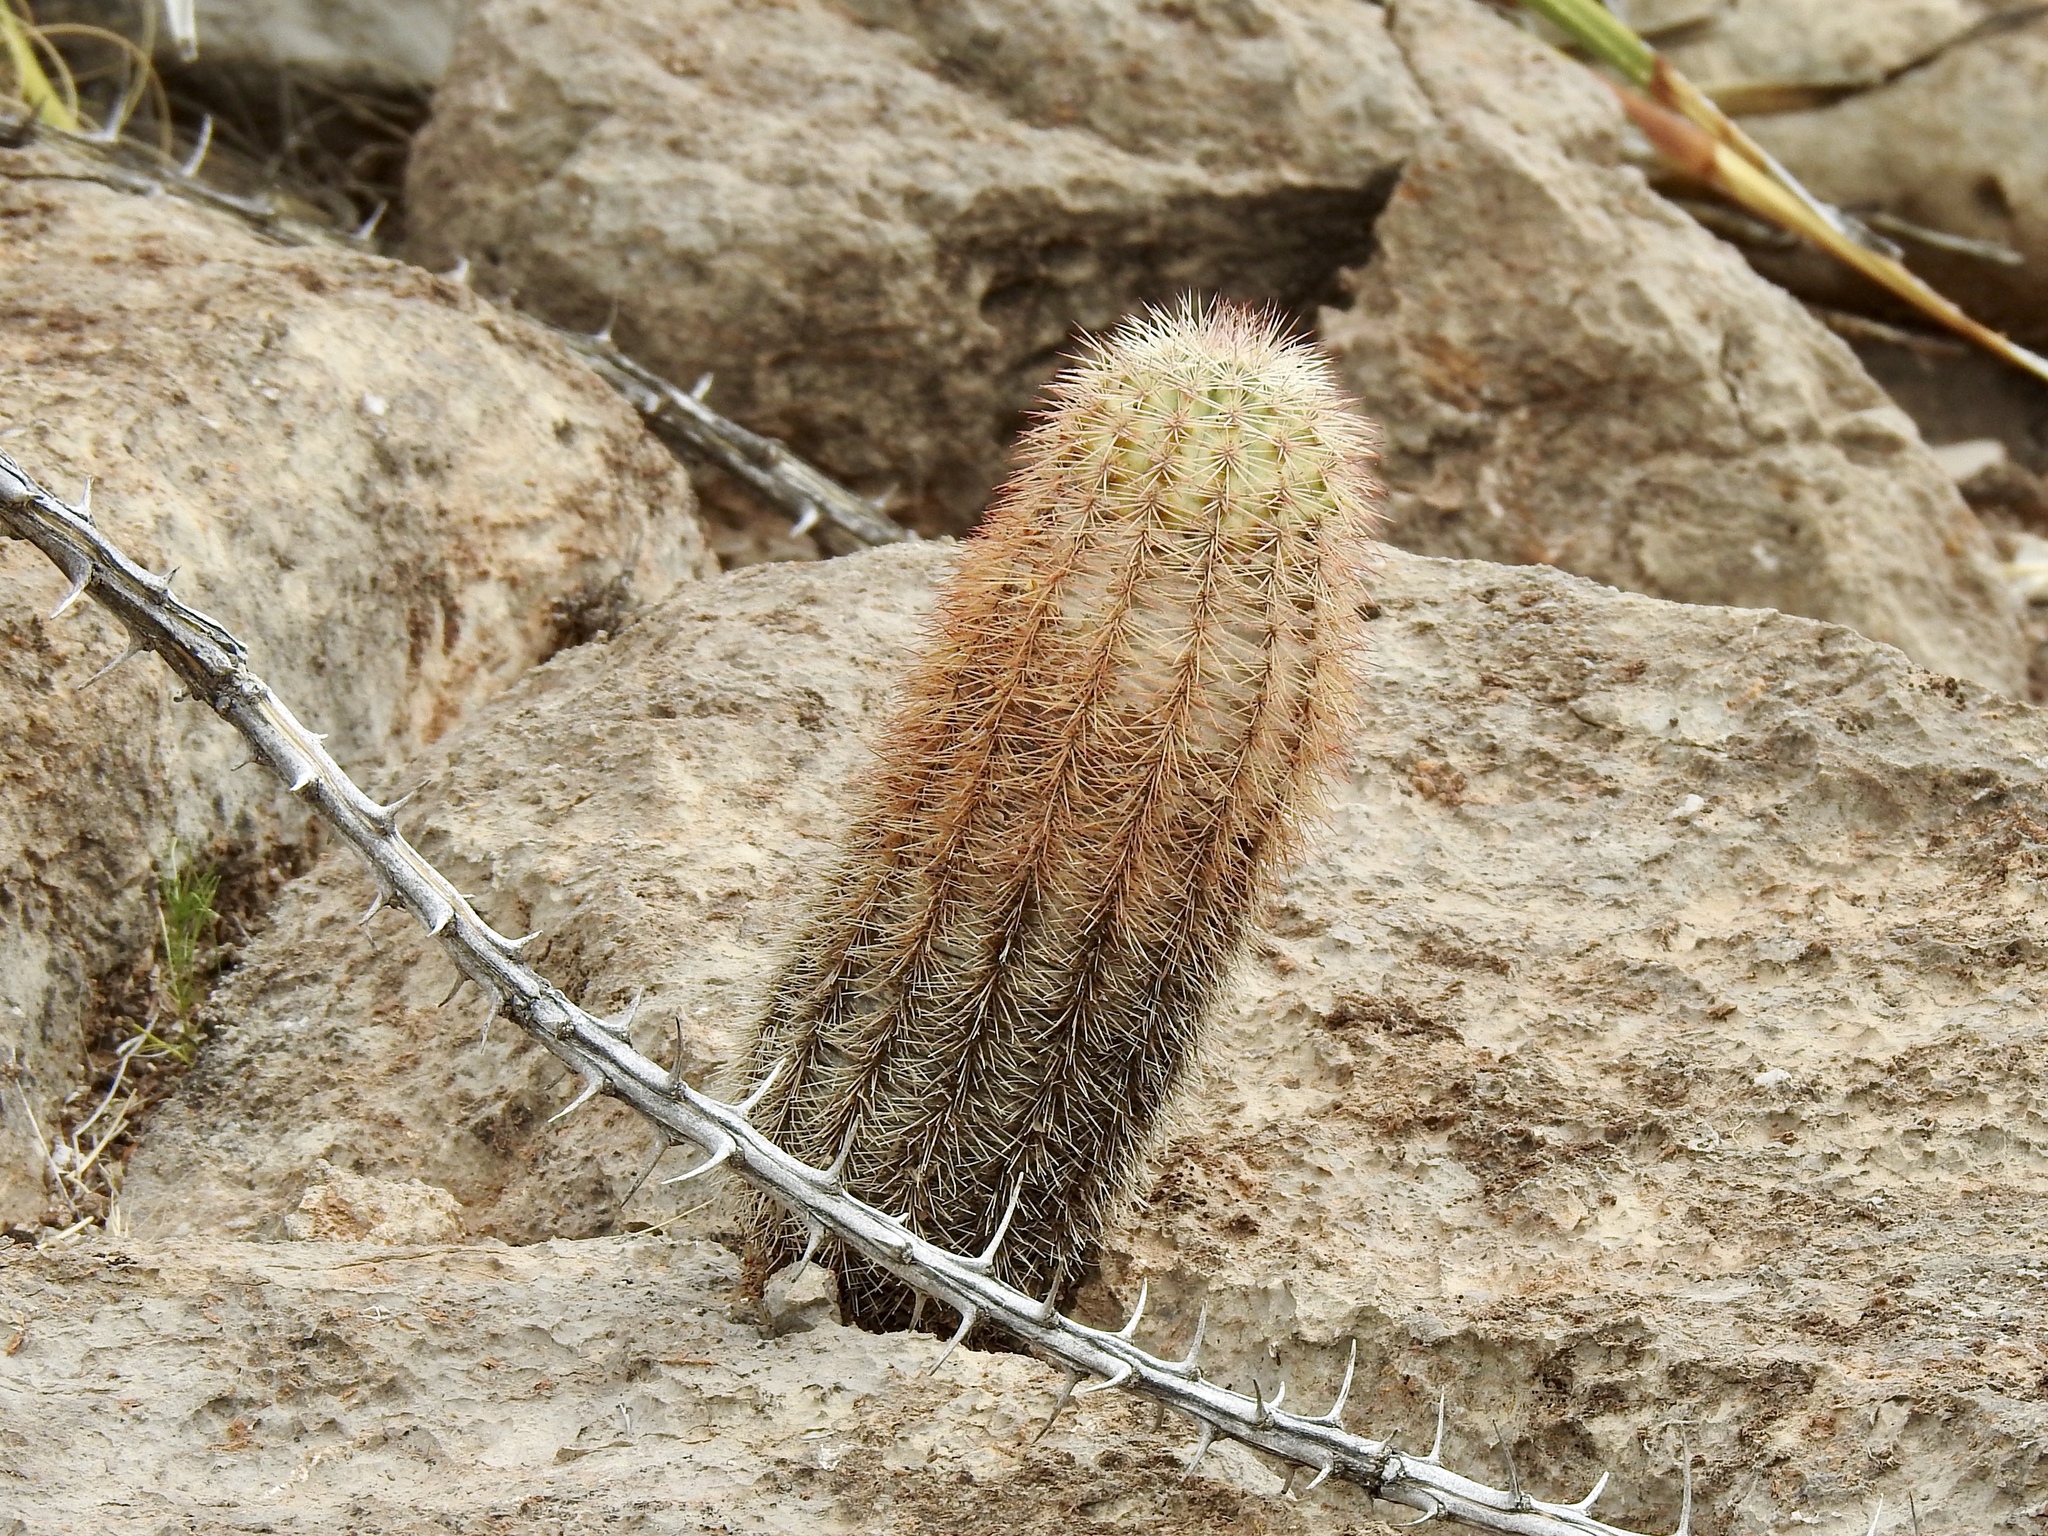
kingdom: Plantae
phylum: Tracheophyta
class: Magnoliopsida
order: Caryophyllales
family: Cactaceae
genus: Echinocereus
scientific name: Echinocereus dasyacanthus
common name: Spiny hedgehog cactus
